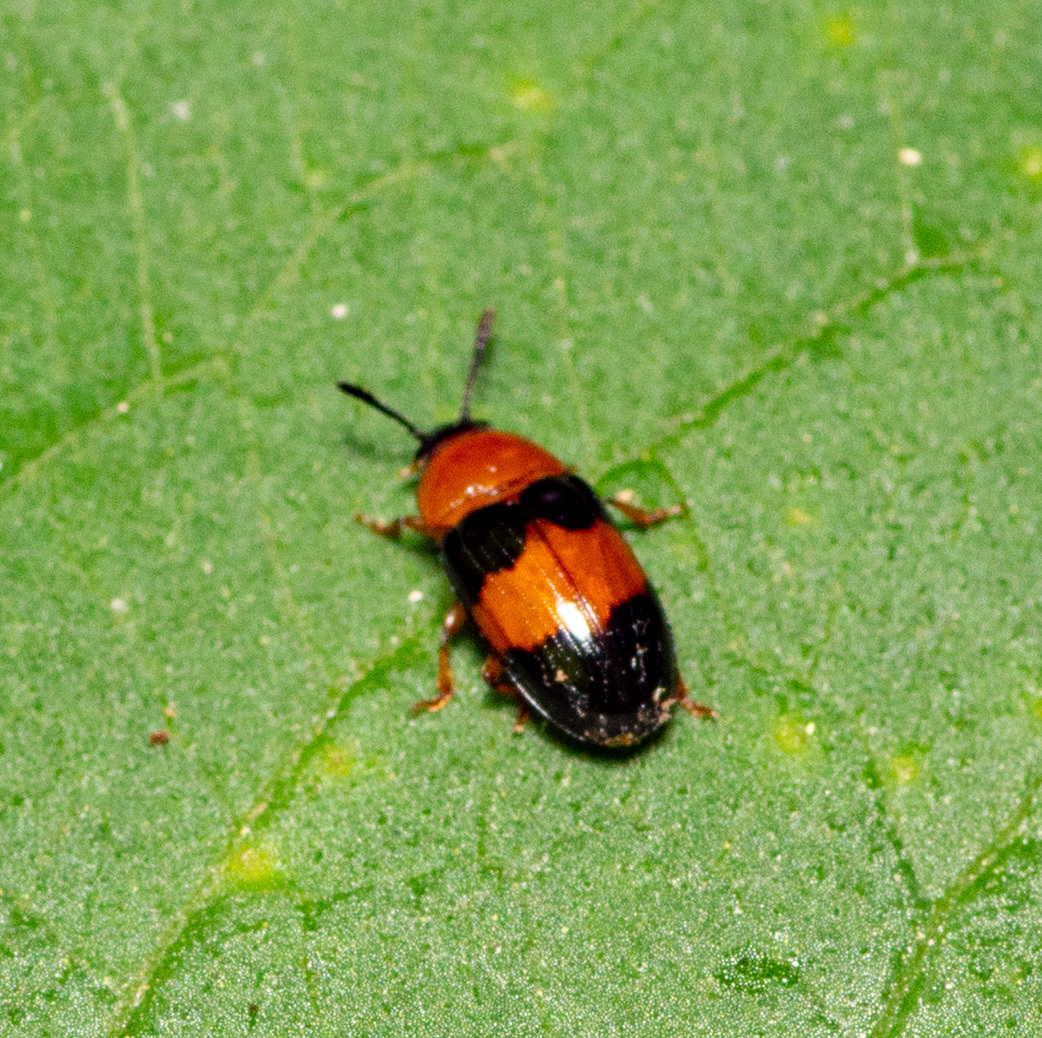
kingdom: Animalia
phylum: Arthropoda
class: Insecta
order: Coleoptera
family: Erotylidae
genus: Triplax
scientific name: Triplax festiva
